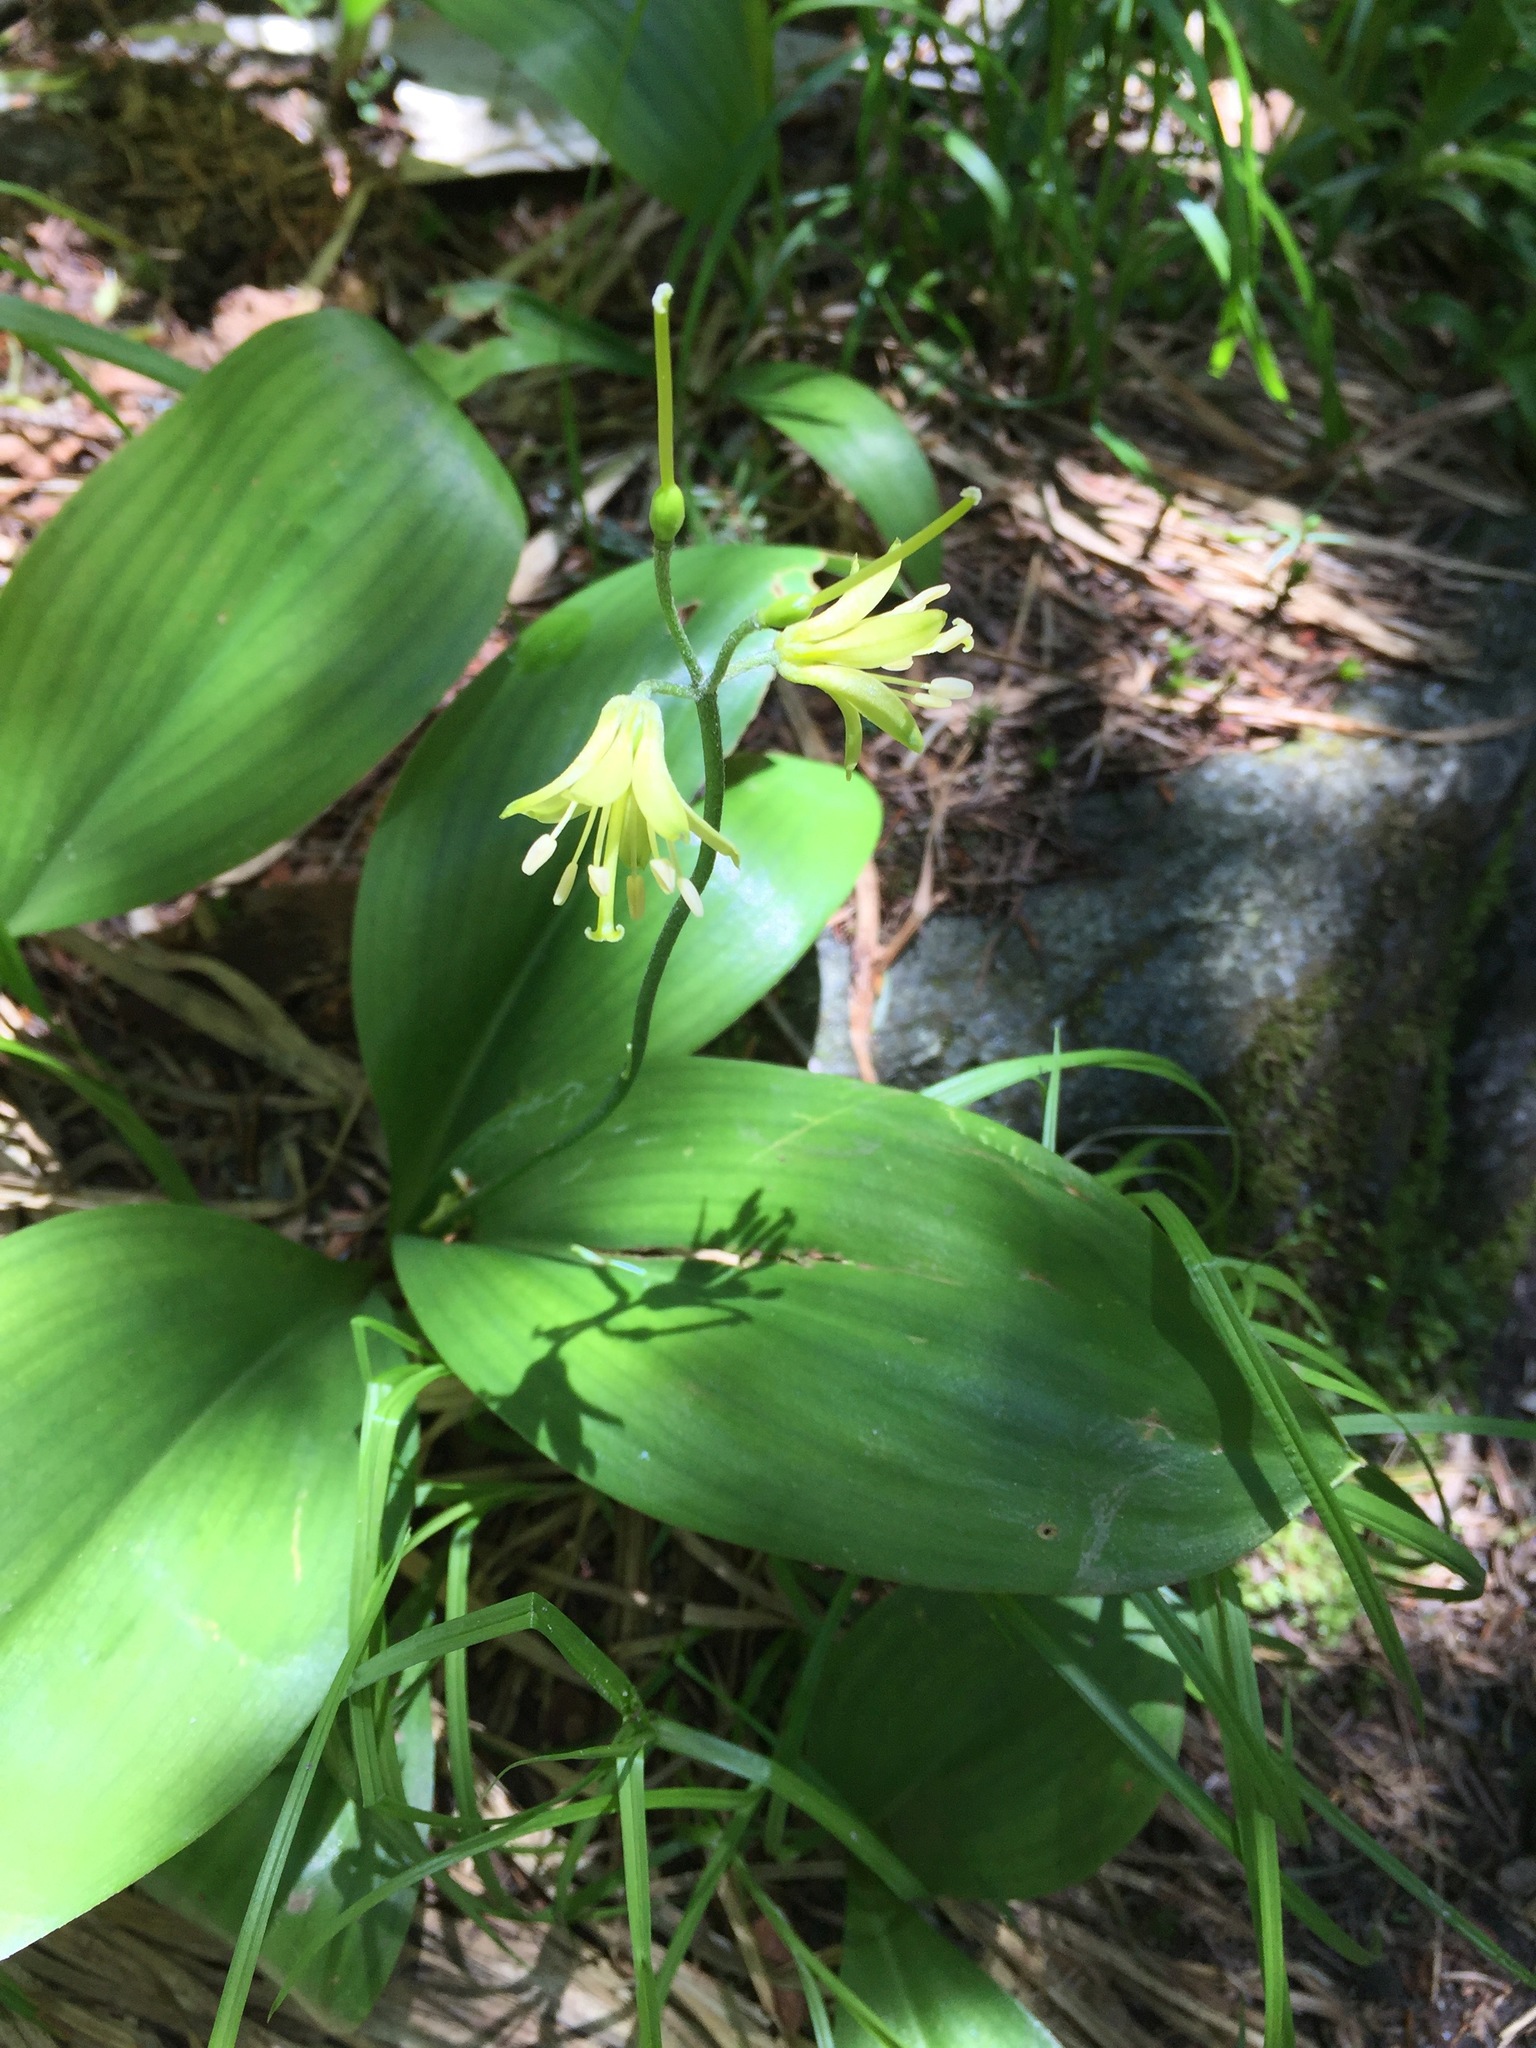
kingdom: Plantae
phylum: Tracheophyta
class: Liliopsida
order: Liliales
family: Liliaceae
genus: Clintonia
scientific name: Clintonia borealis
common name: Yellow clintonia
